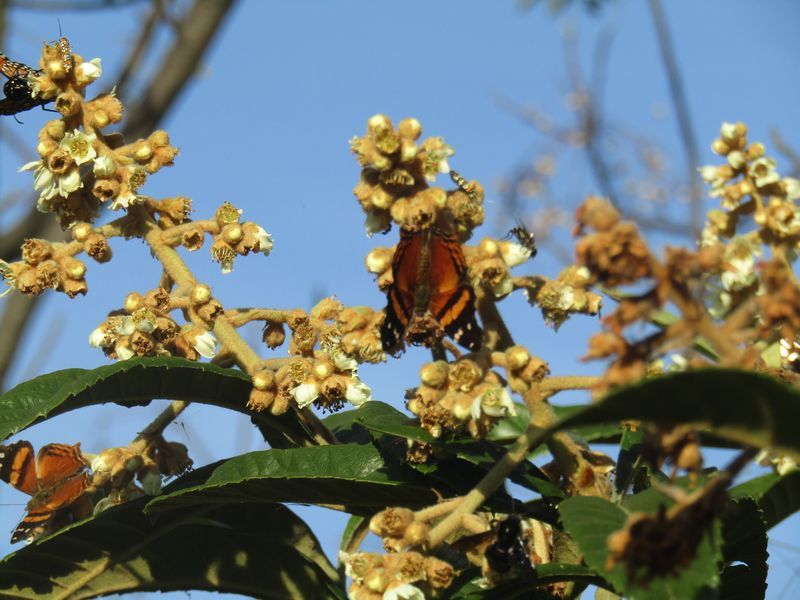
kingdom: Animalia
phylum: Arthropoda
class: Insecta
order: Lepidoptera
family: Nymphalidae
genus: Hypanartia
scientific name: Hypanartia bella
